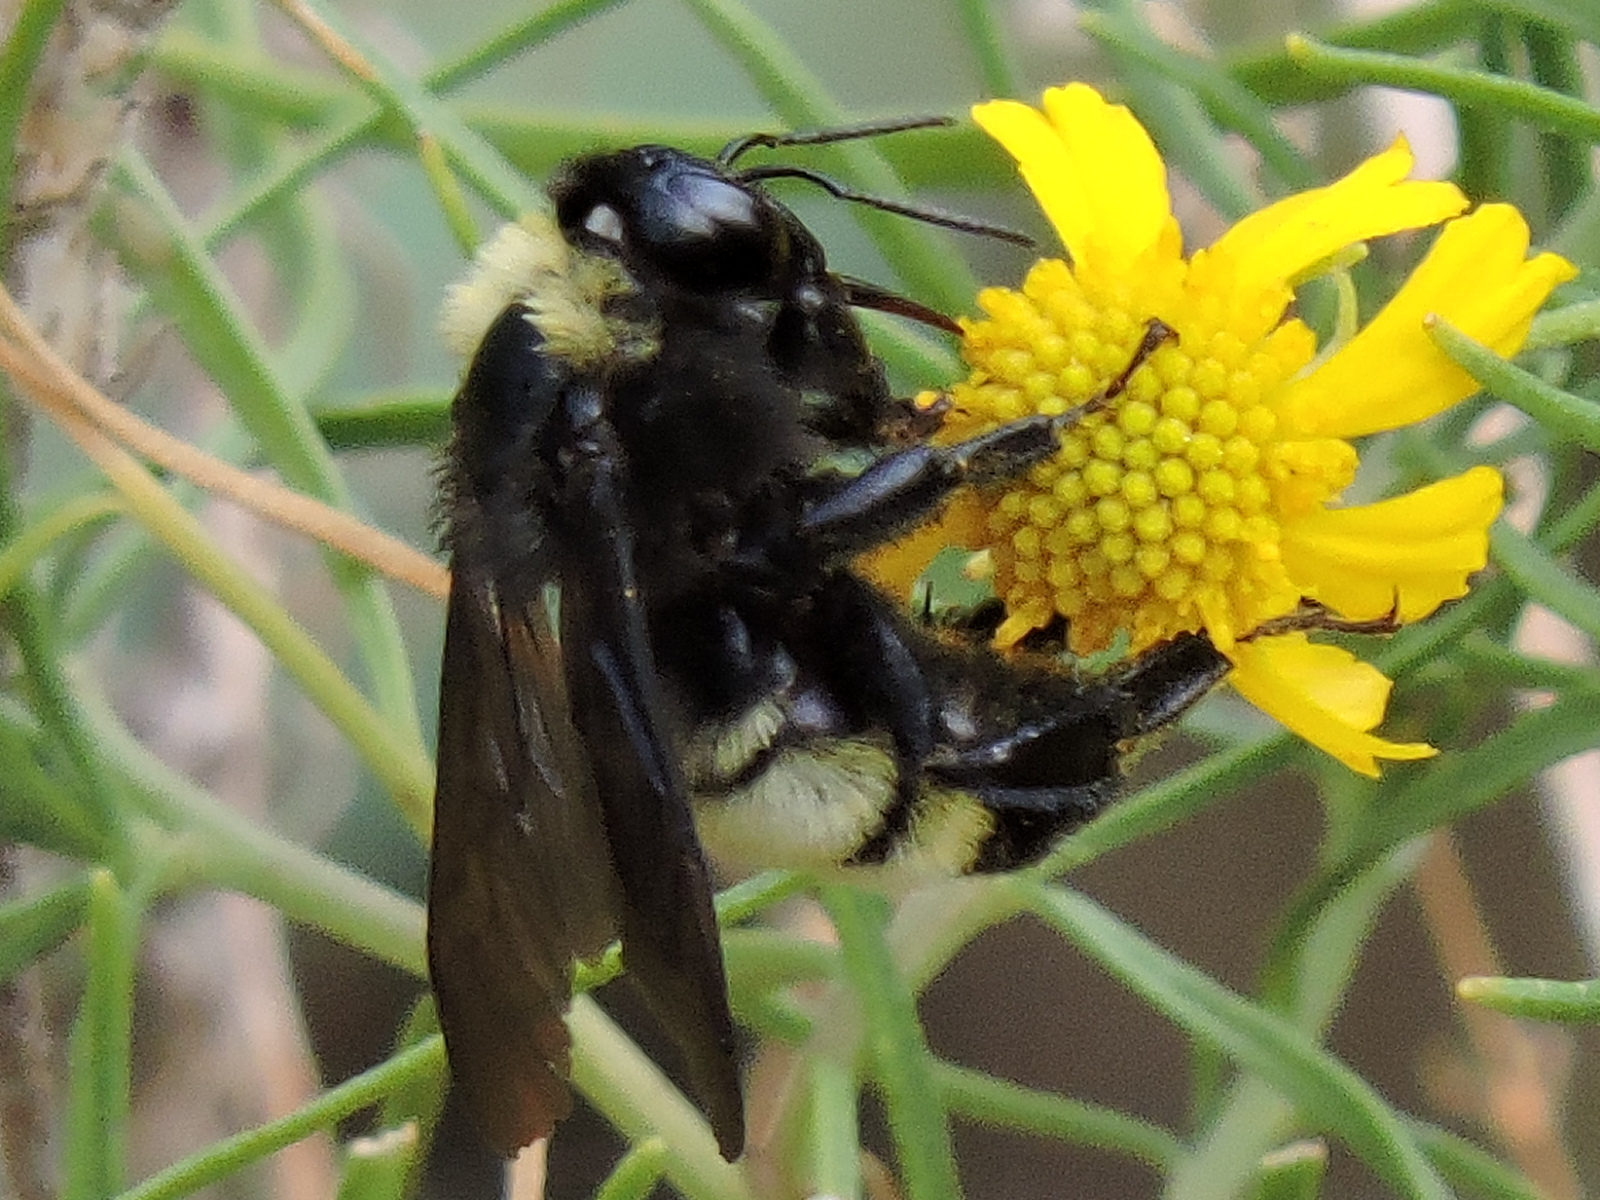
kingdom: Animalia
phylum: Arthropoda
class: Insecta
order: Hymenoptera
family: Apidae
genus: Bombus
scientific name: Bombus pensylvanicus
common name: Bumble bee
